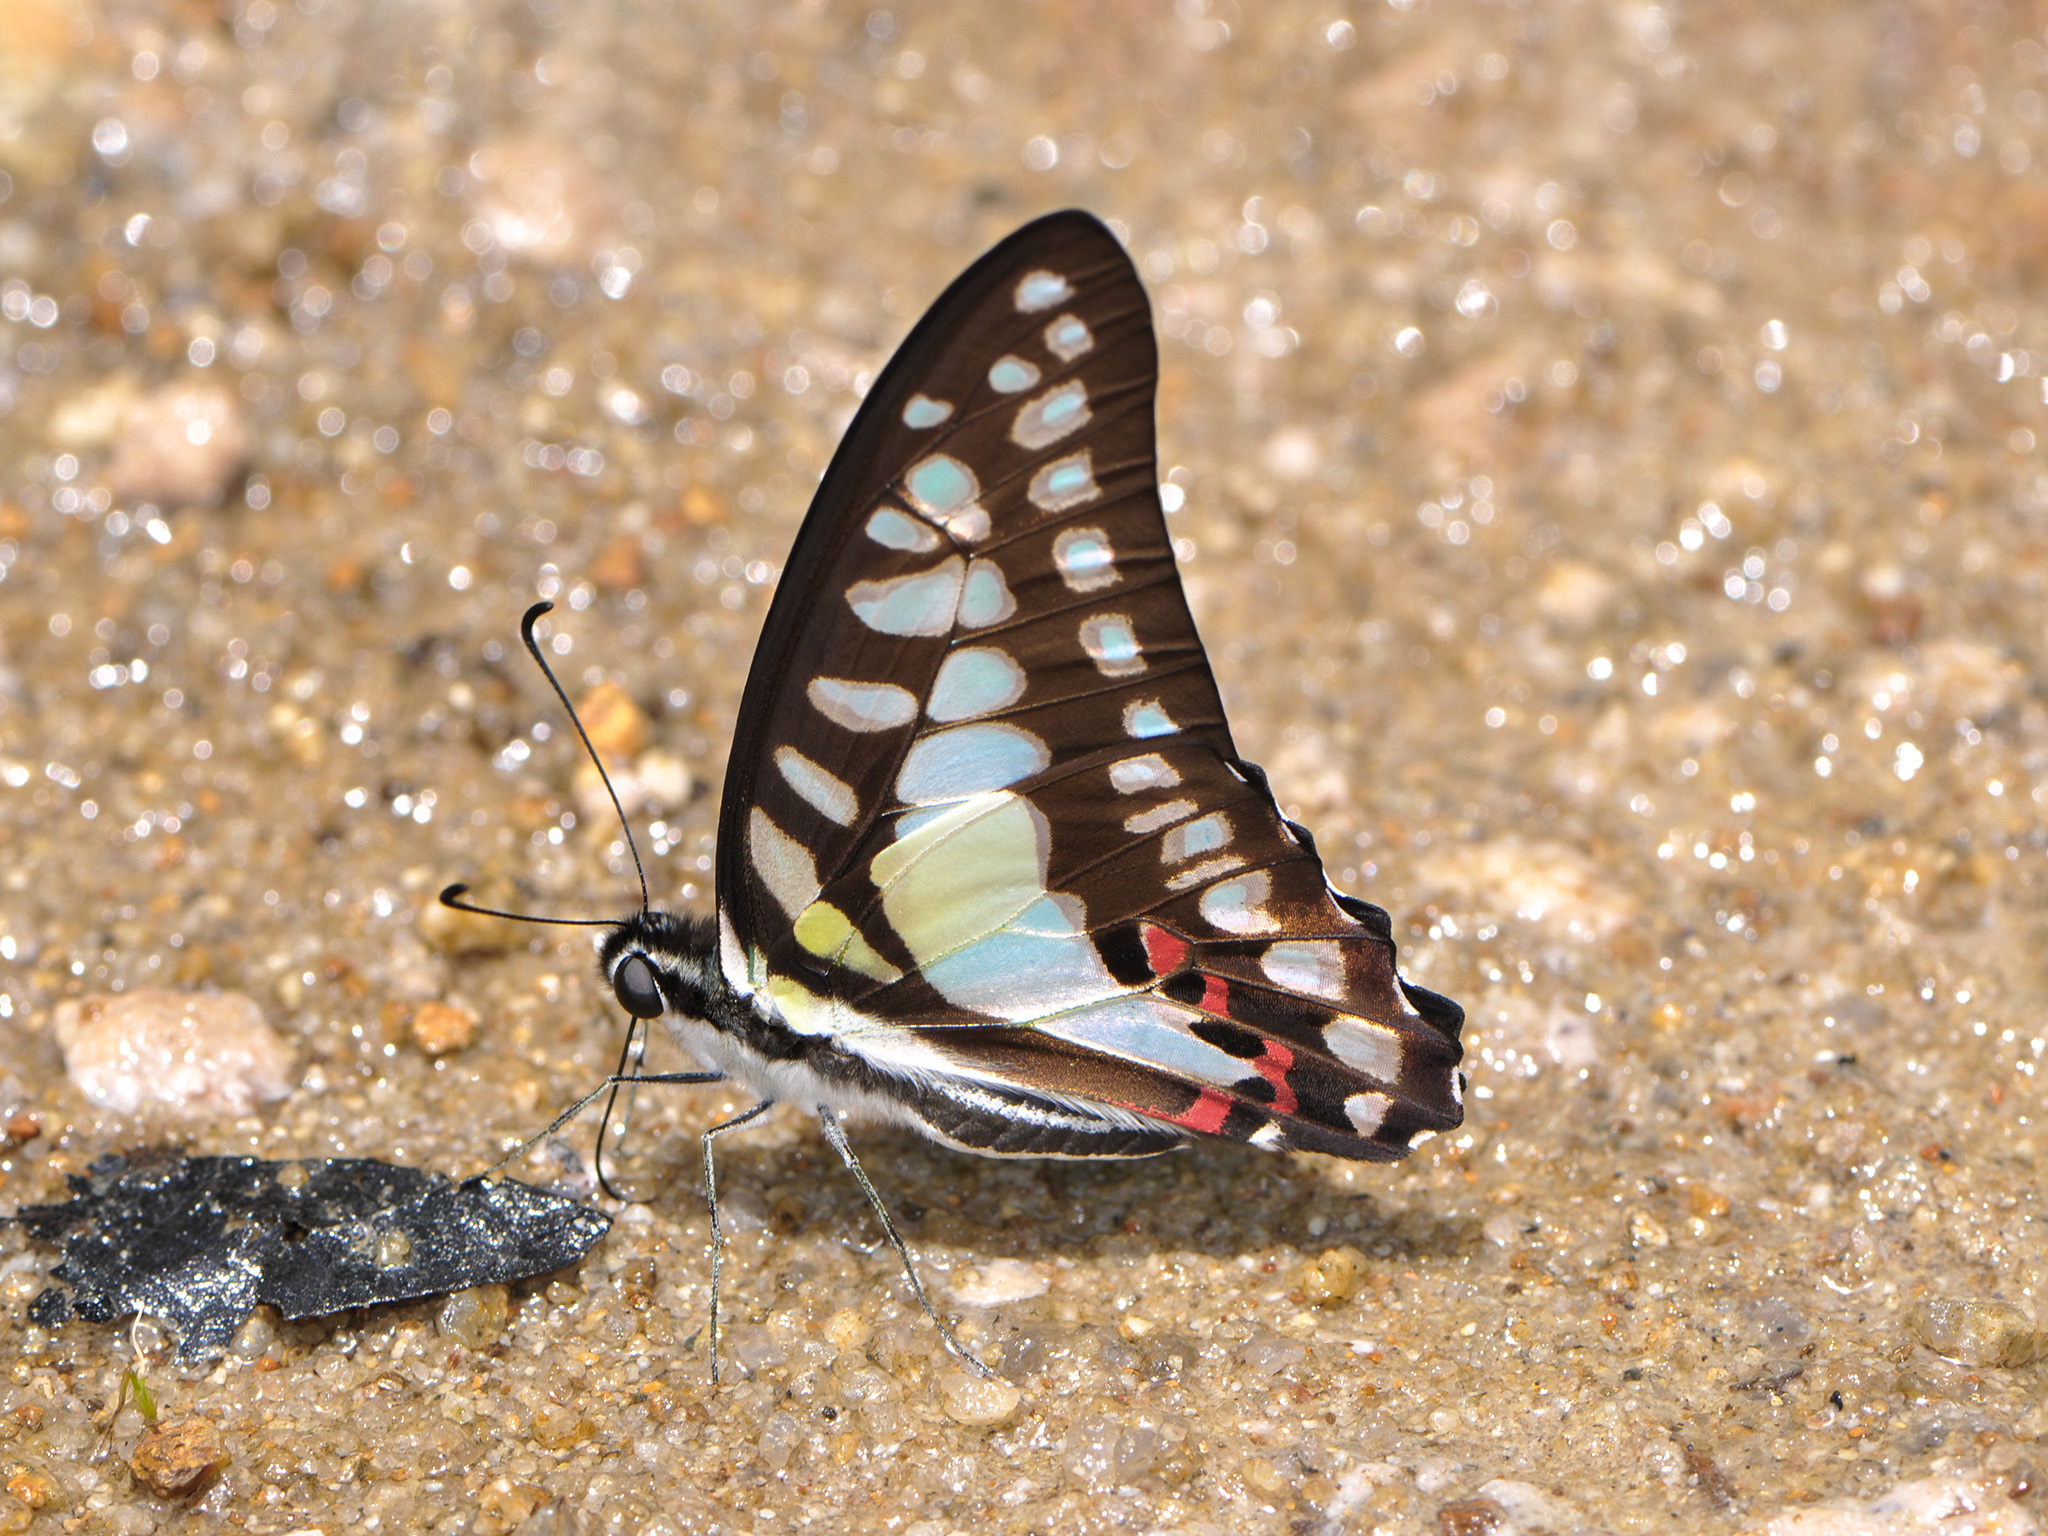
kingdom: Animalia
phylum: Arthropoda
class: Insecta
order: Lepidoptera
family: Papilionidae
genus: Graphium
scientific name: Graphium evemon
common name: Lesser jay
